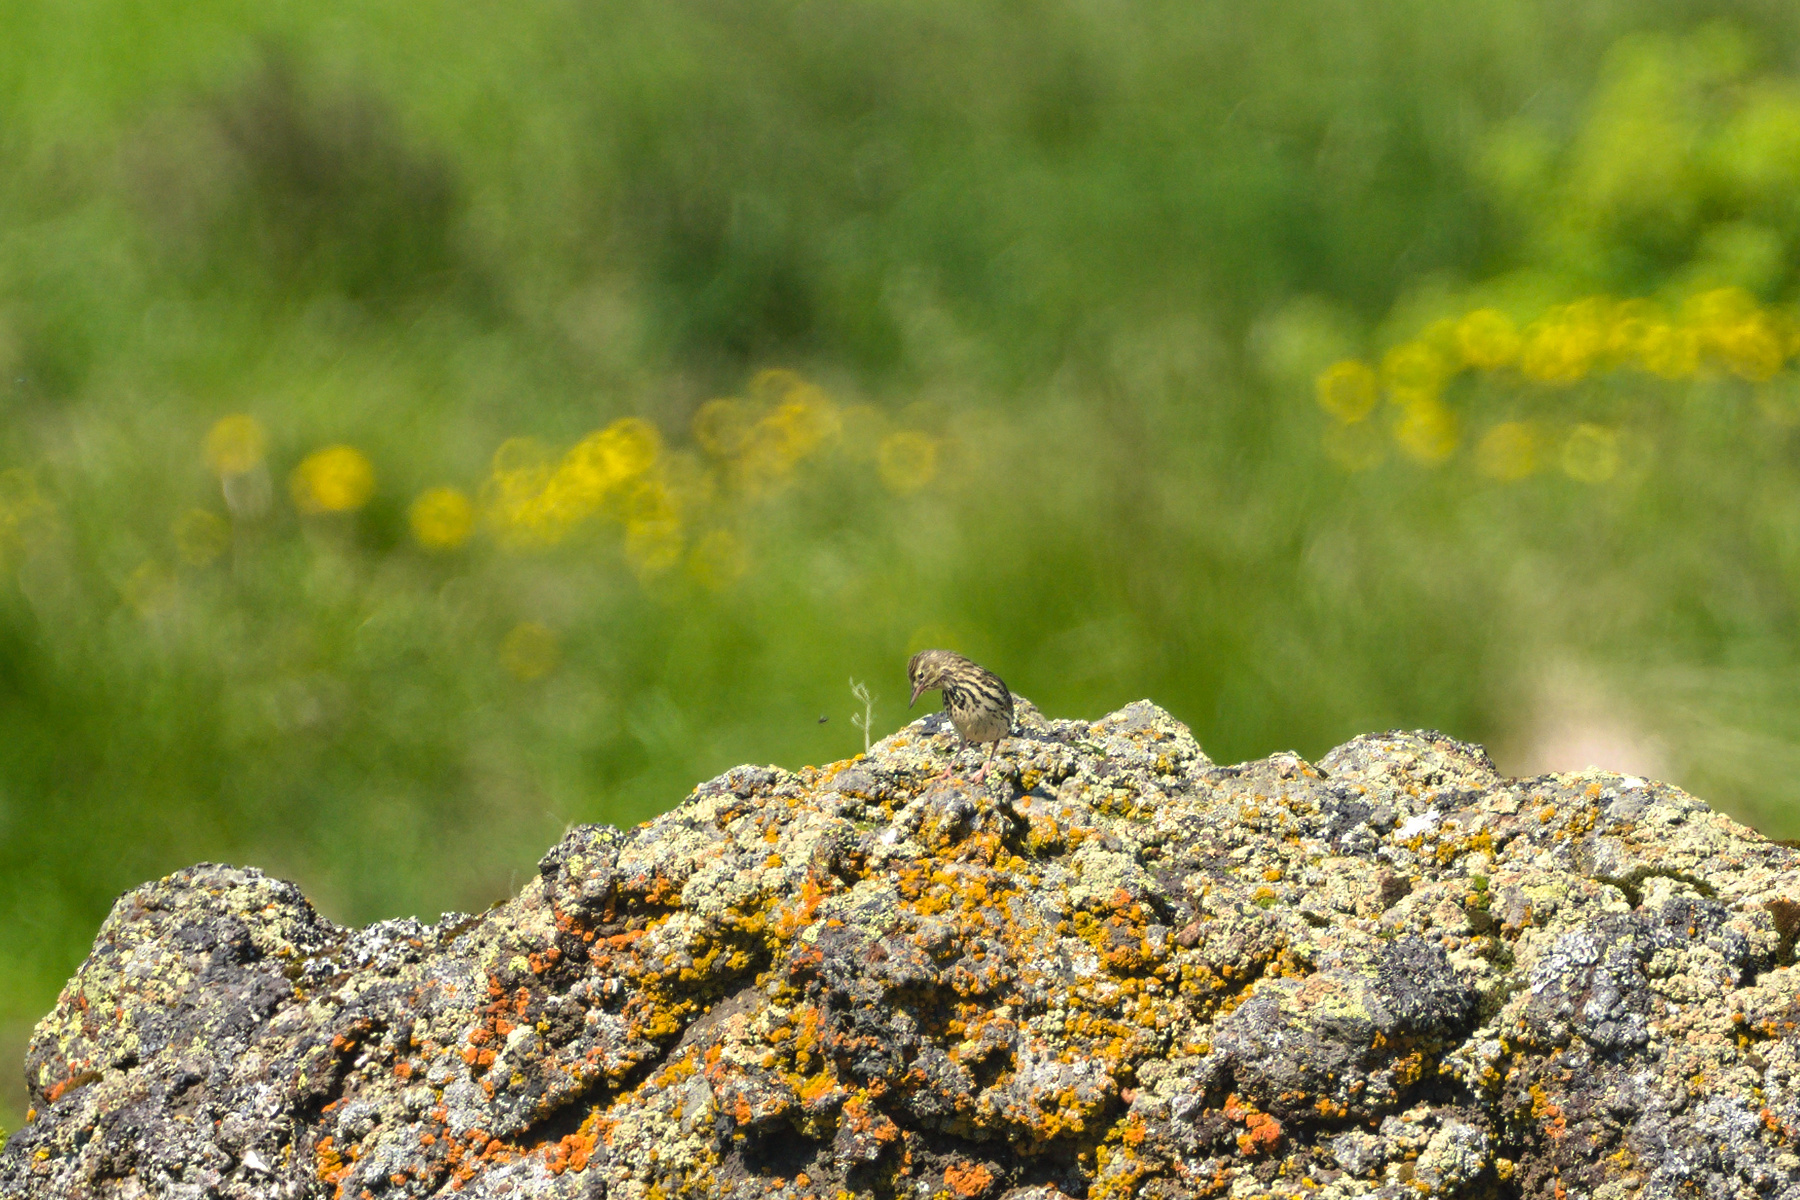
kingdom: Animalia
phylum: Chordata
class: Aves
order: Passeriformes
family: Motacillidae
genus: Anthus
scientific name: Anthus pratensis
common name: Meadow pipit
